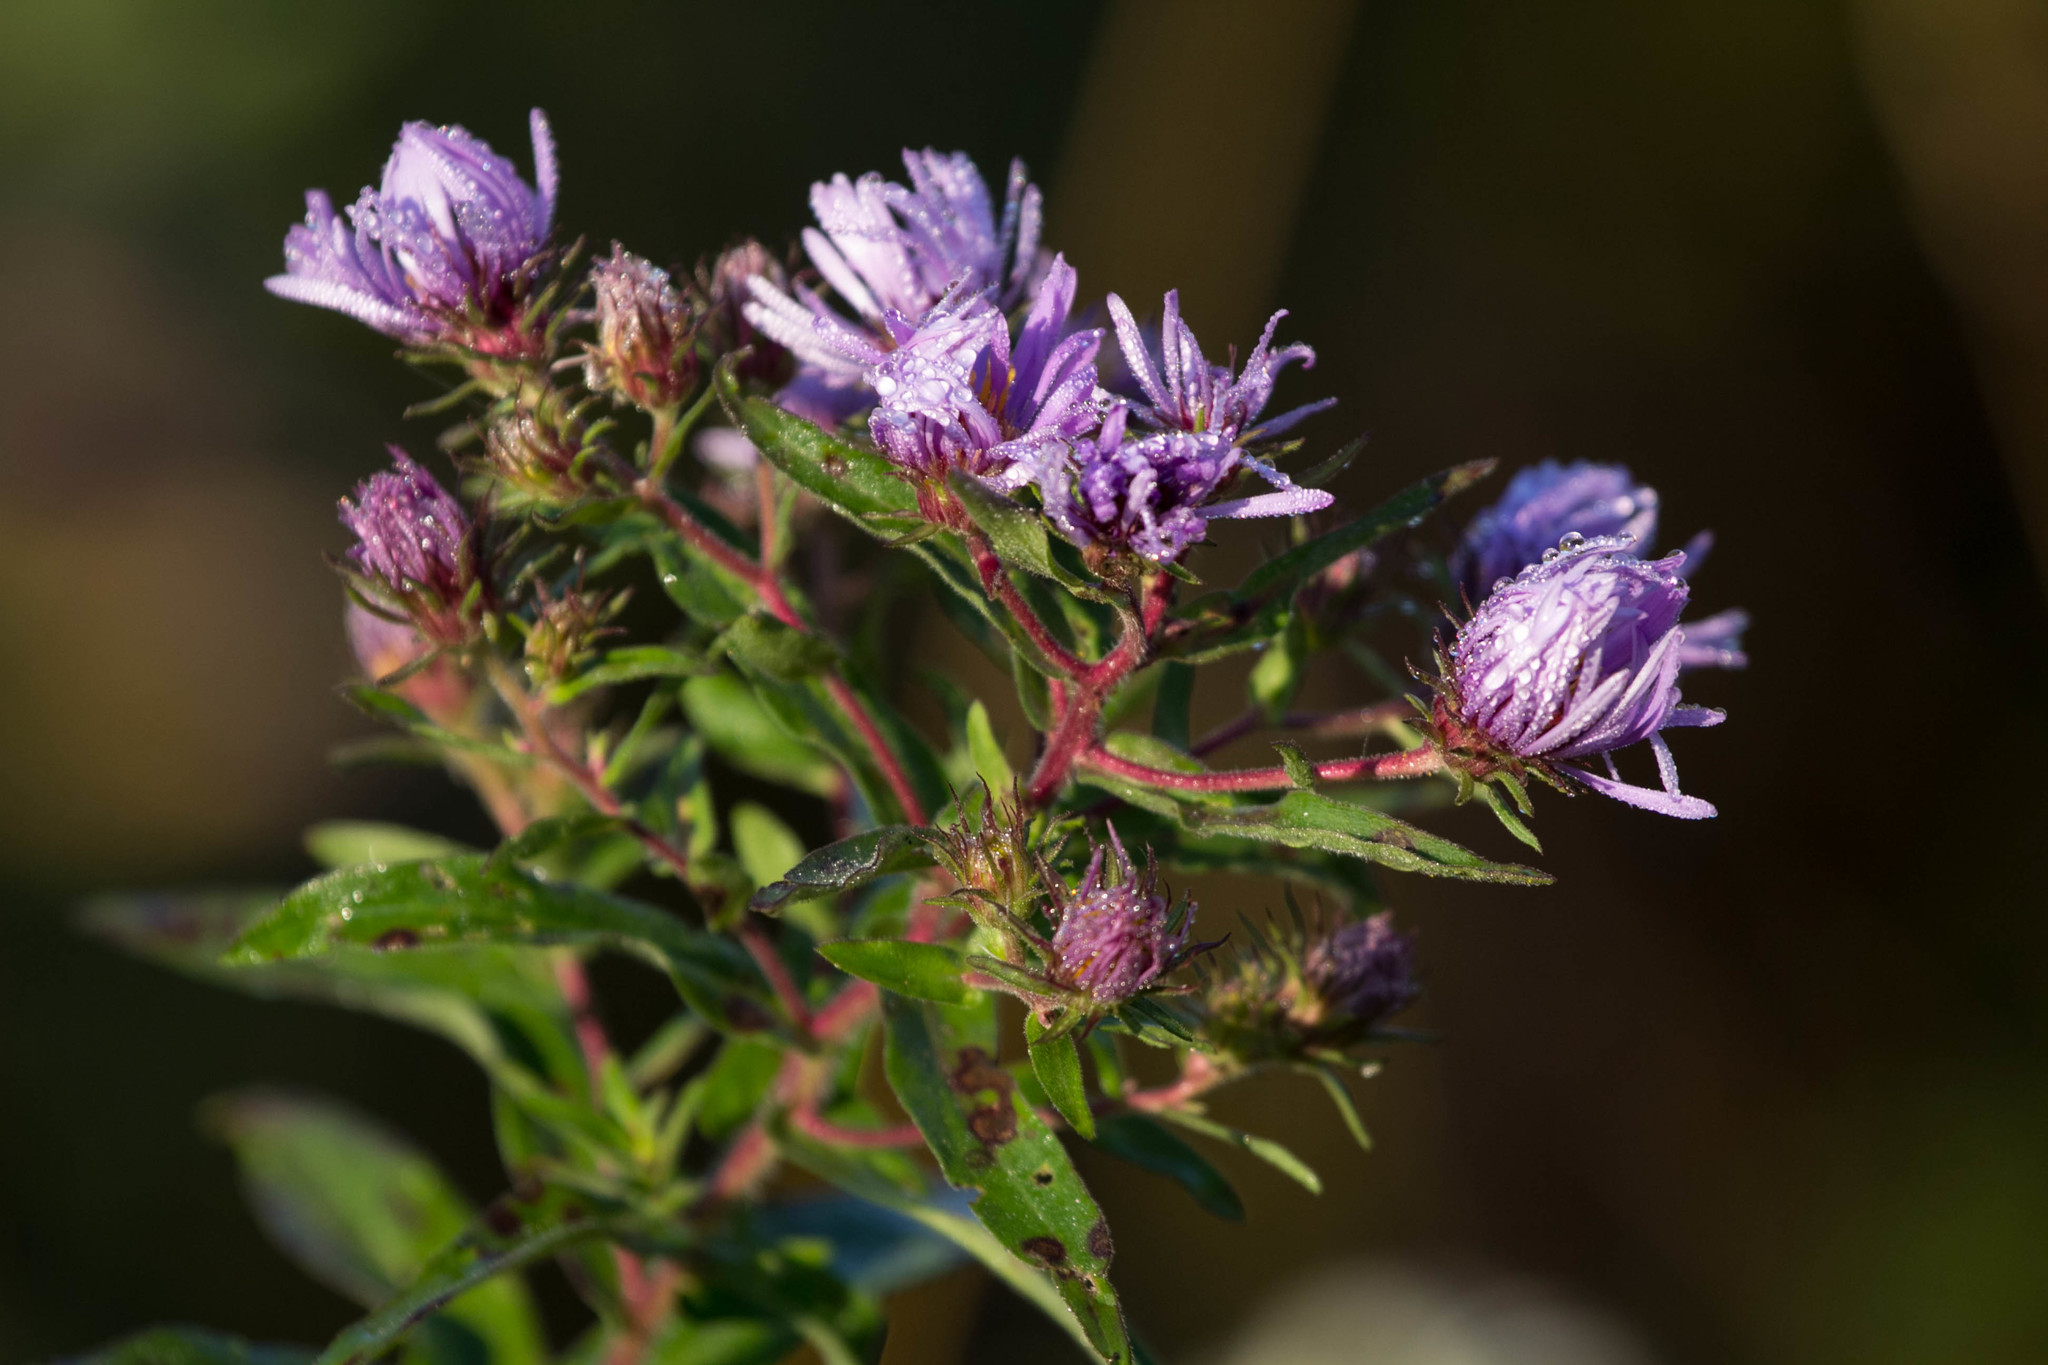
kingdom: Plantae
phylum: Tracheophyta
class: Magnoliopsida
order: Asterales
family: Asteraceae
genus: Symphyotrichum
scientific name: Symphyotrichum novae-angliae
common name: Michaelmas daisy
